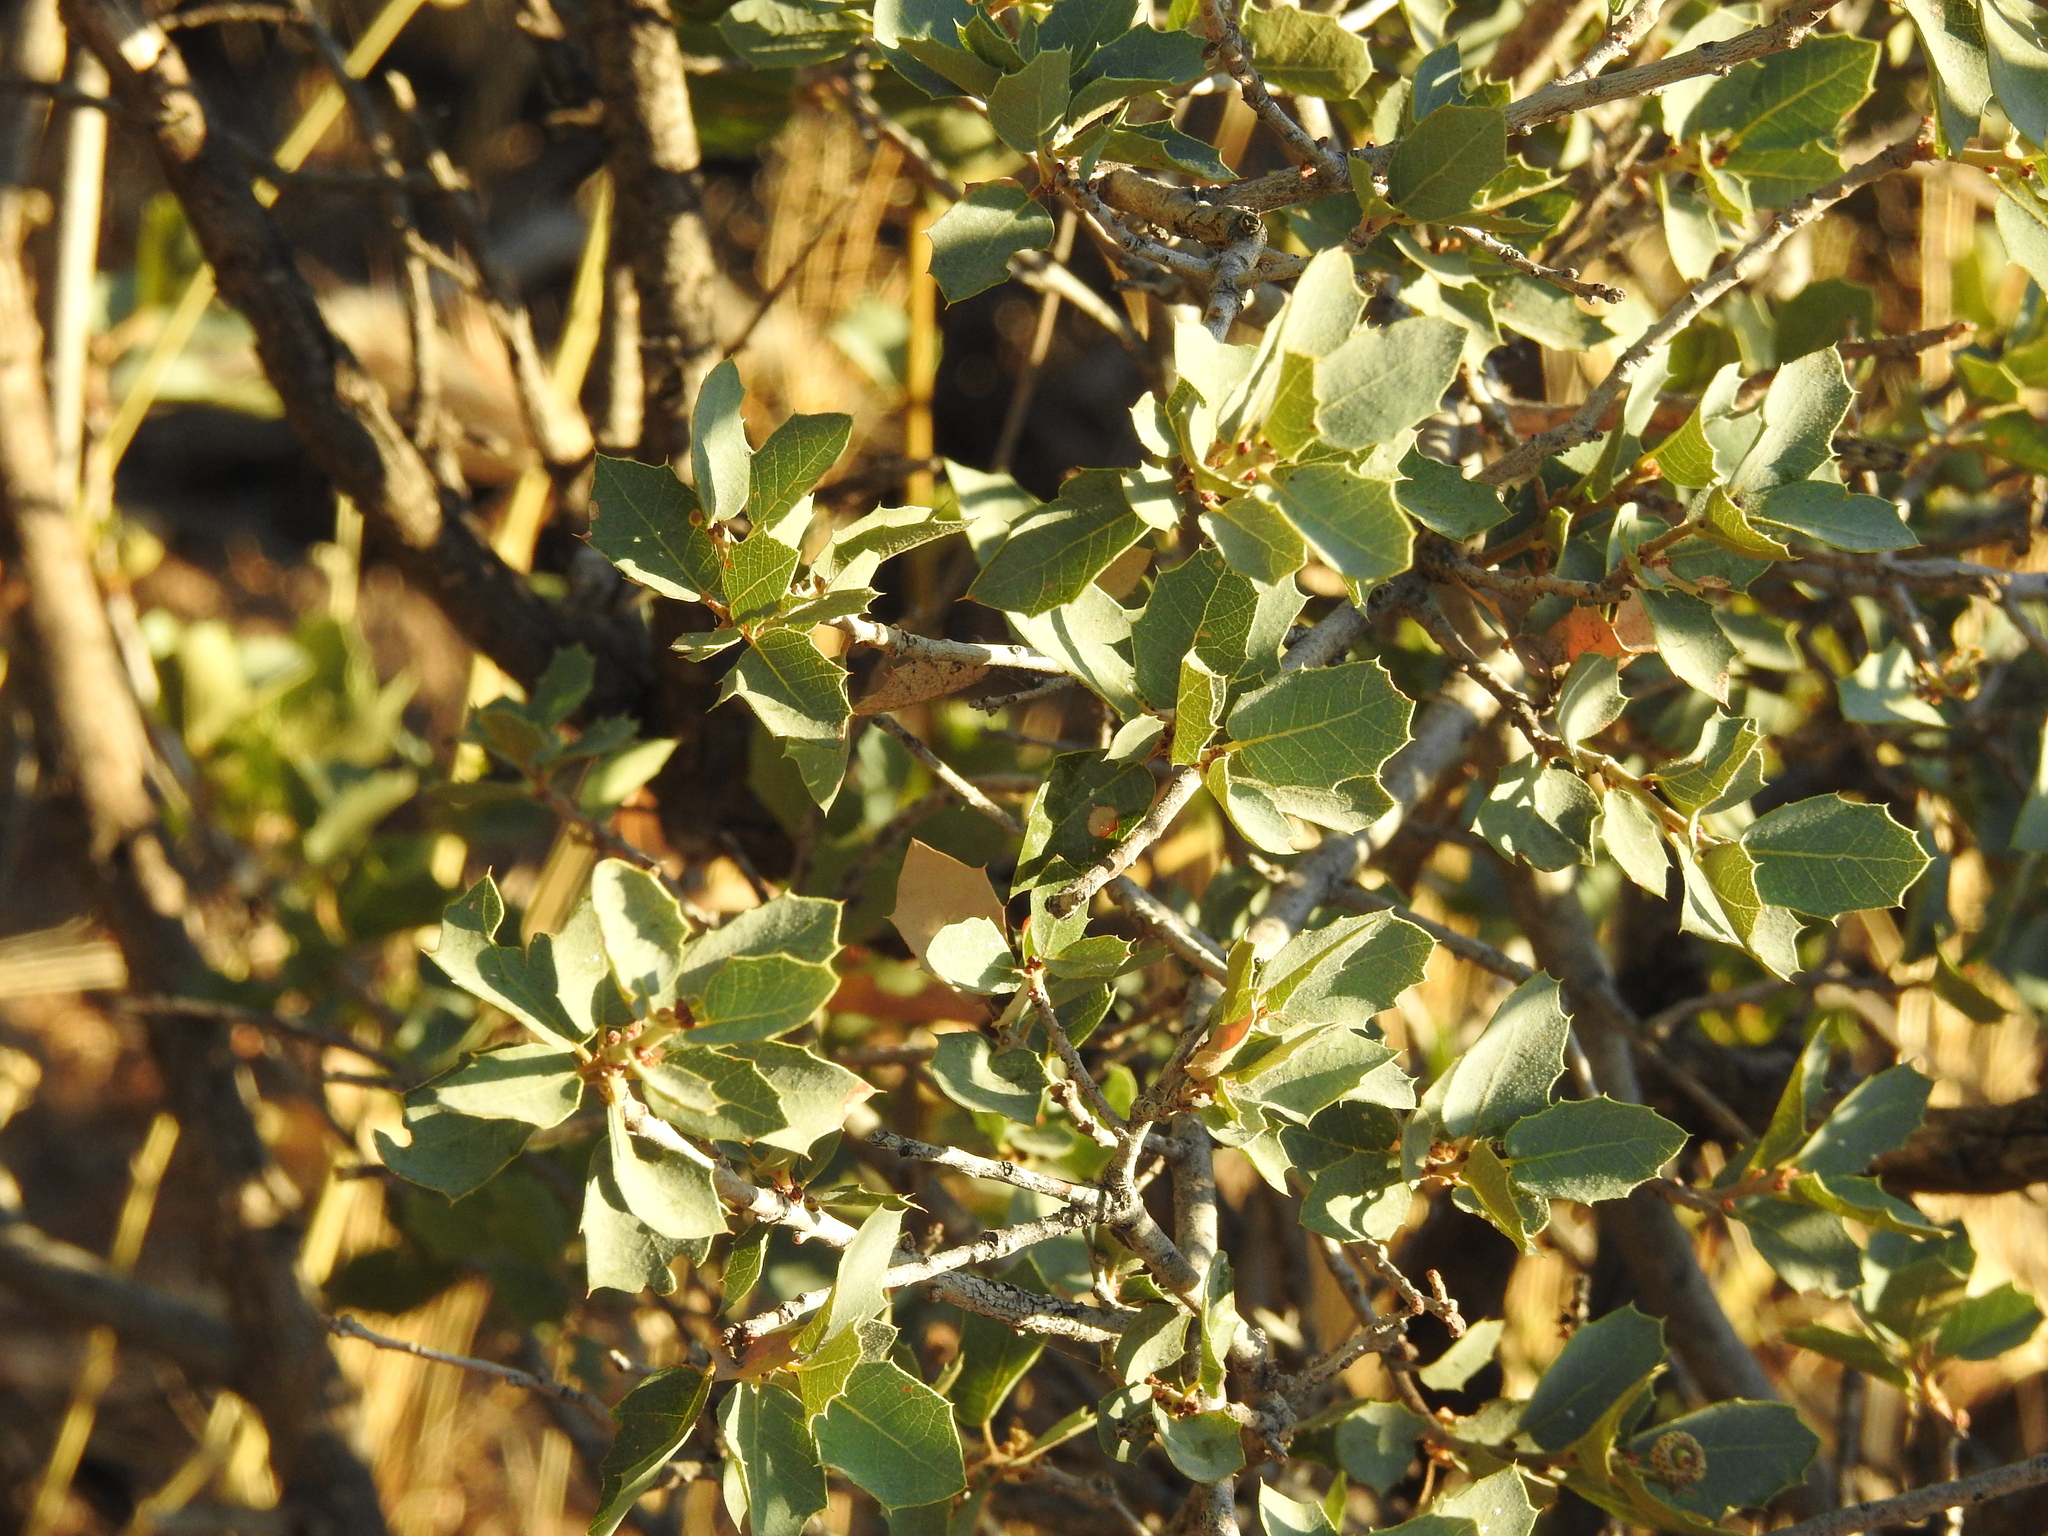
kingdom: Plantae
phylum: Tracheophyta
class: Magnoliopsida
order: Fagales
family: Fagaceae
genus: Quercus
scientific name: Quercus turbinella
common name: Sonoran scrub oak
